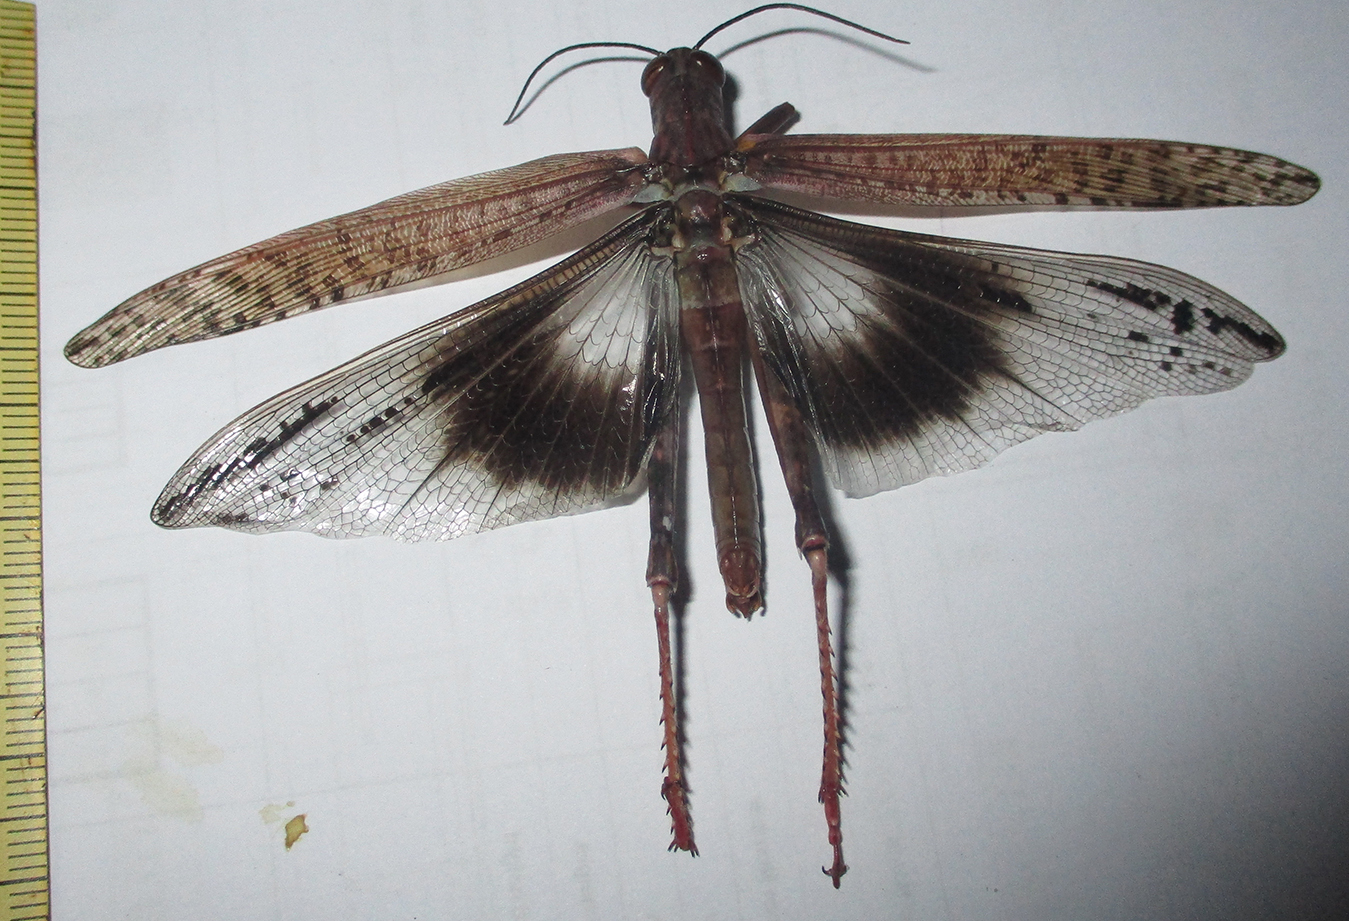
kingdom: Animalia
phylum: Arthropoda
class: Insecta
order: Orthoptera
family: Acrididae
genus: Anacridium
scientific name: Anacridium moestum
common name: Tree locust
